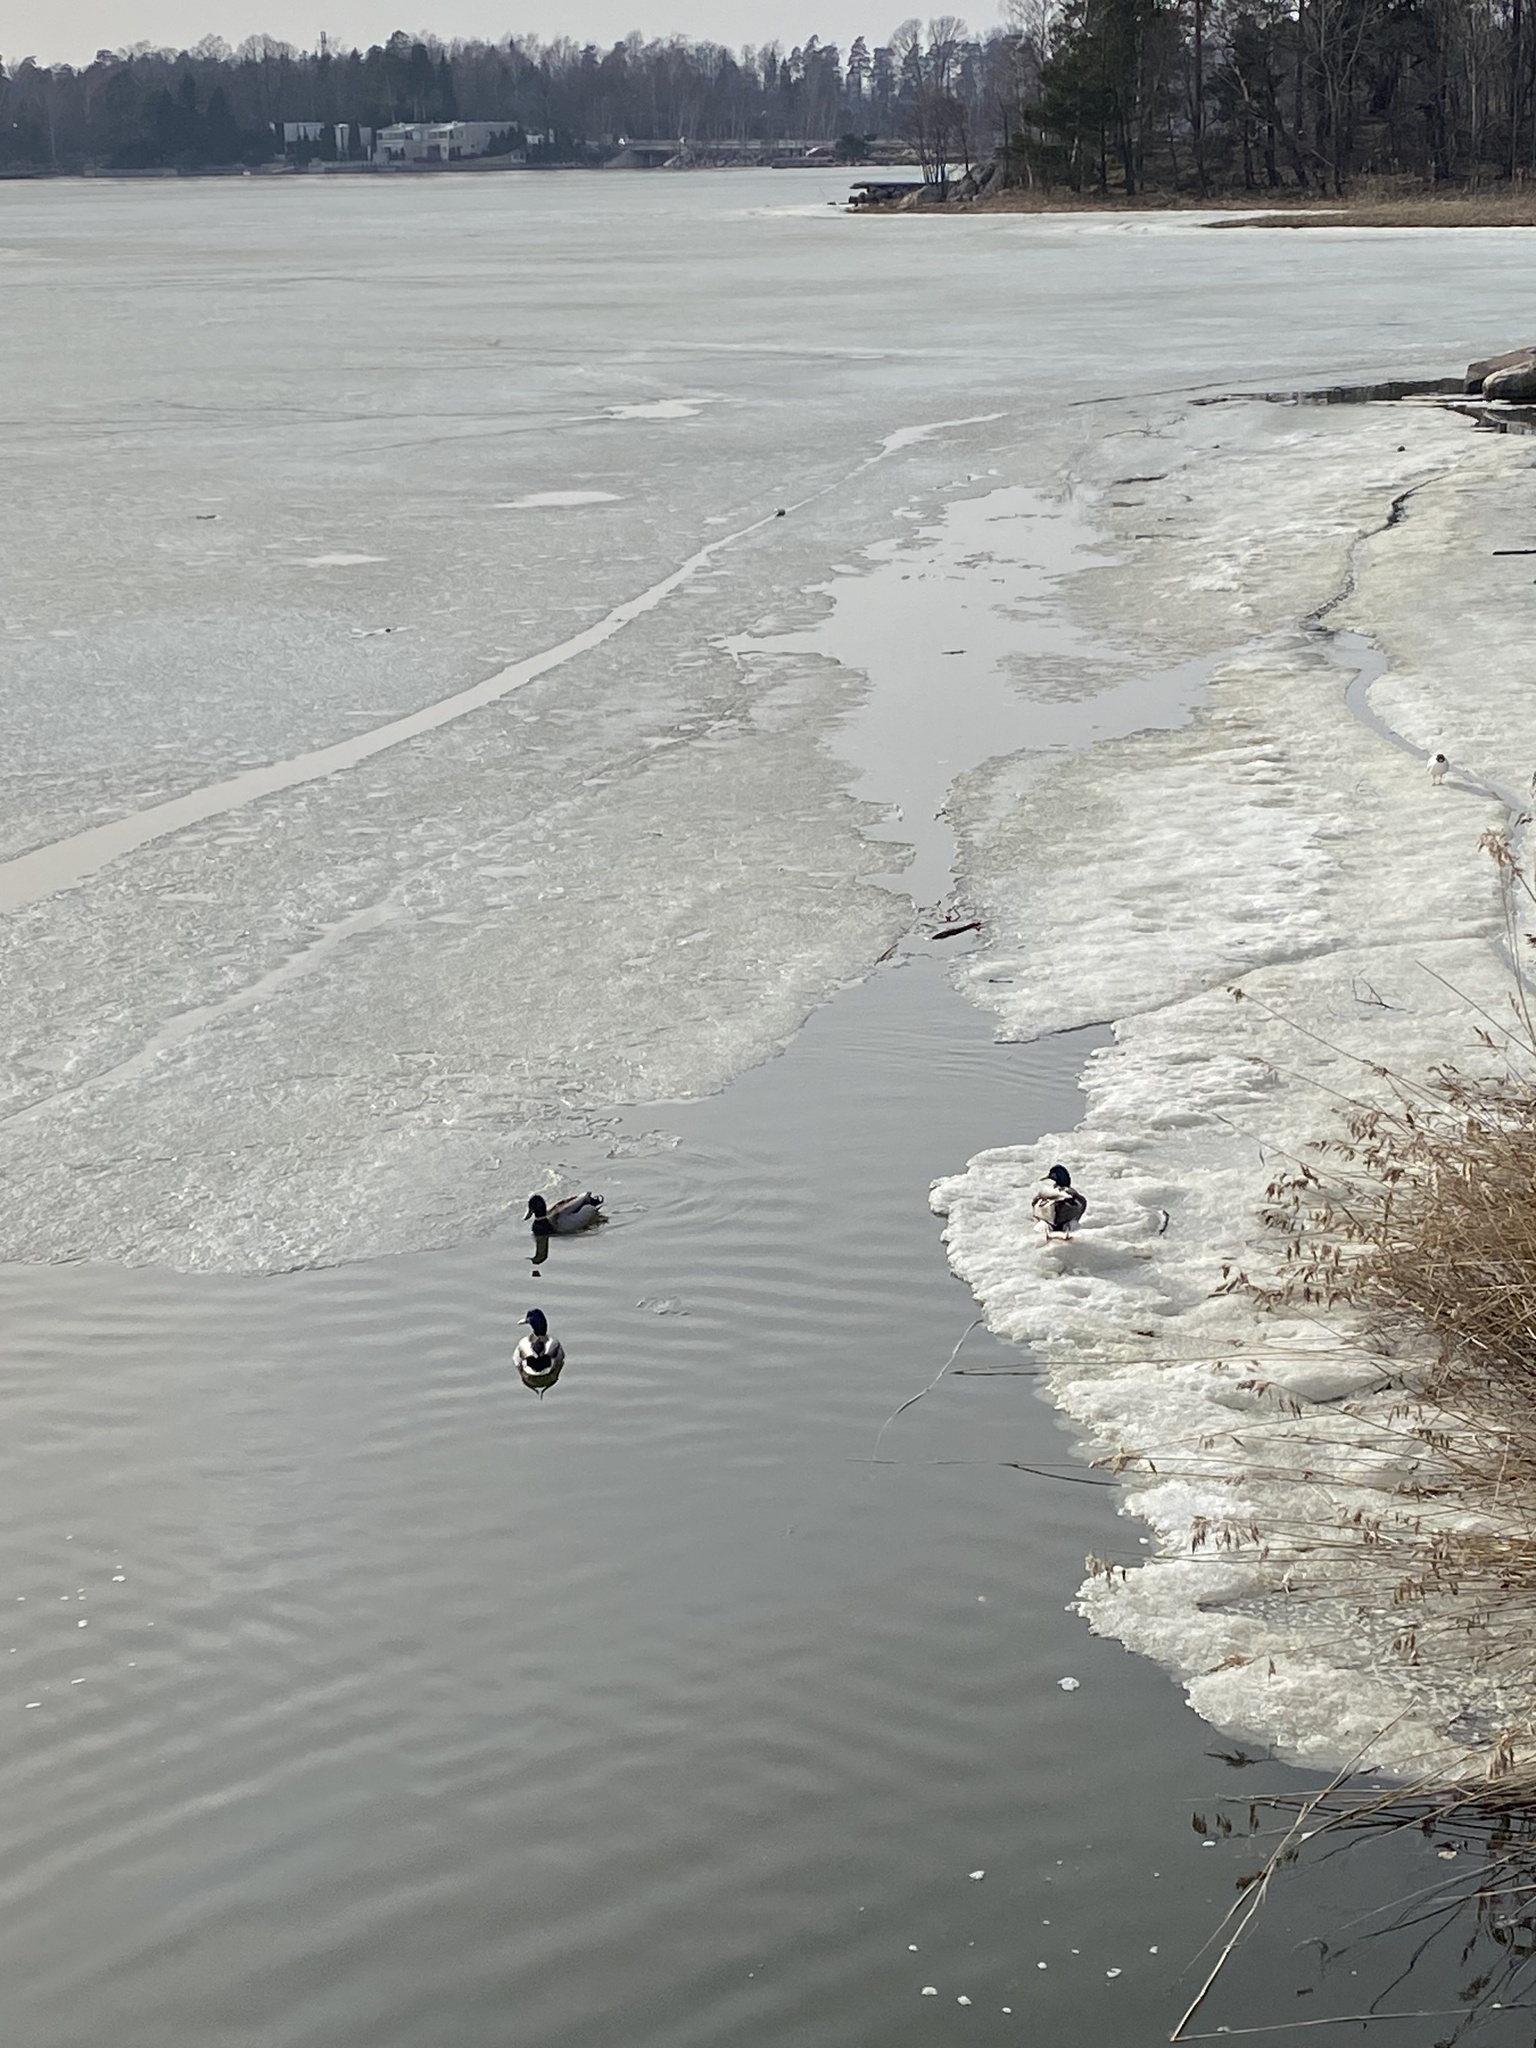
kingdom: Animalia
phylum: Chordata
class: Aves
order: Anseriformes
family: Anatidae
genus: Anas
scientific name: Anas platyrhynchos
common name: Mallard
